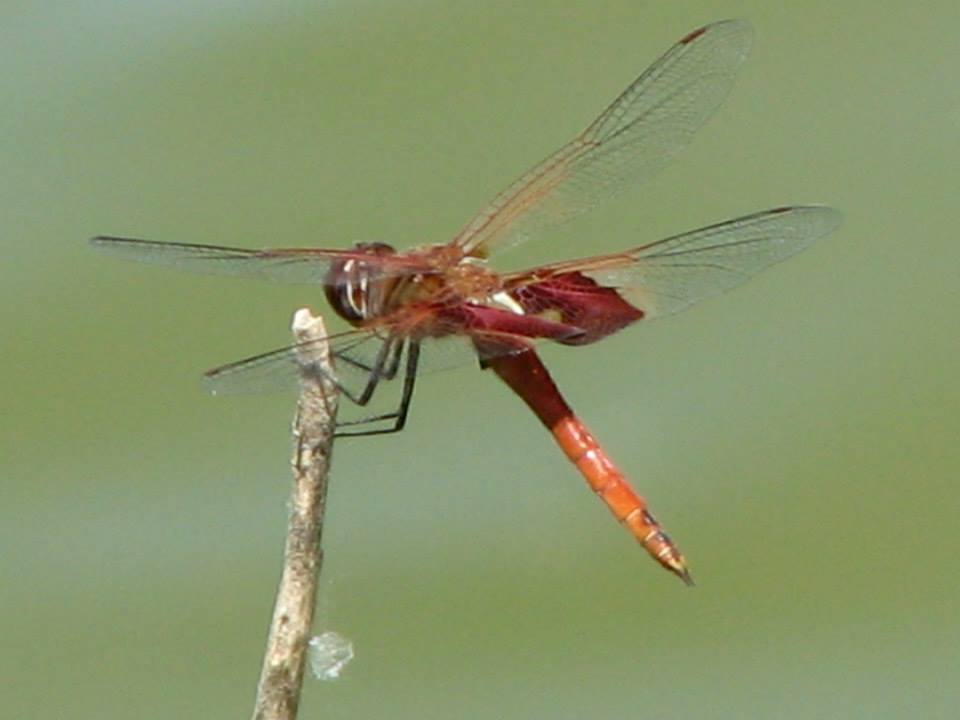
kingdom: Animalia
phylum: Arthropoda
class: Insecta
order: Odonata
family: Libellulidae
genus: Tramea
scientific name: Tramea onusta
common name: Red saddlebags
